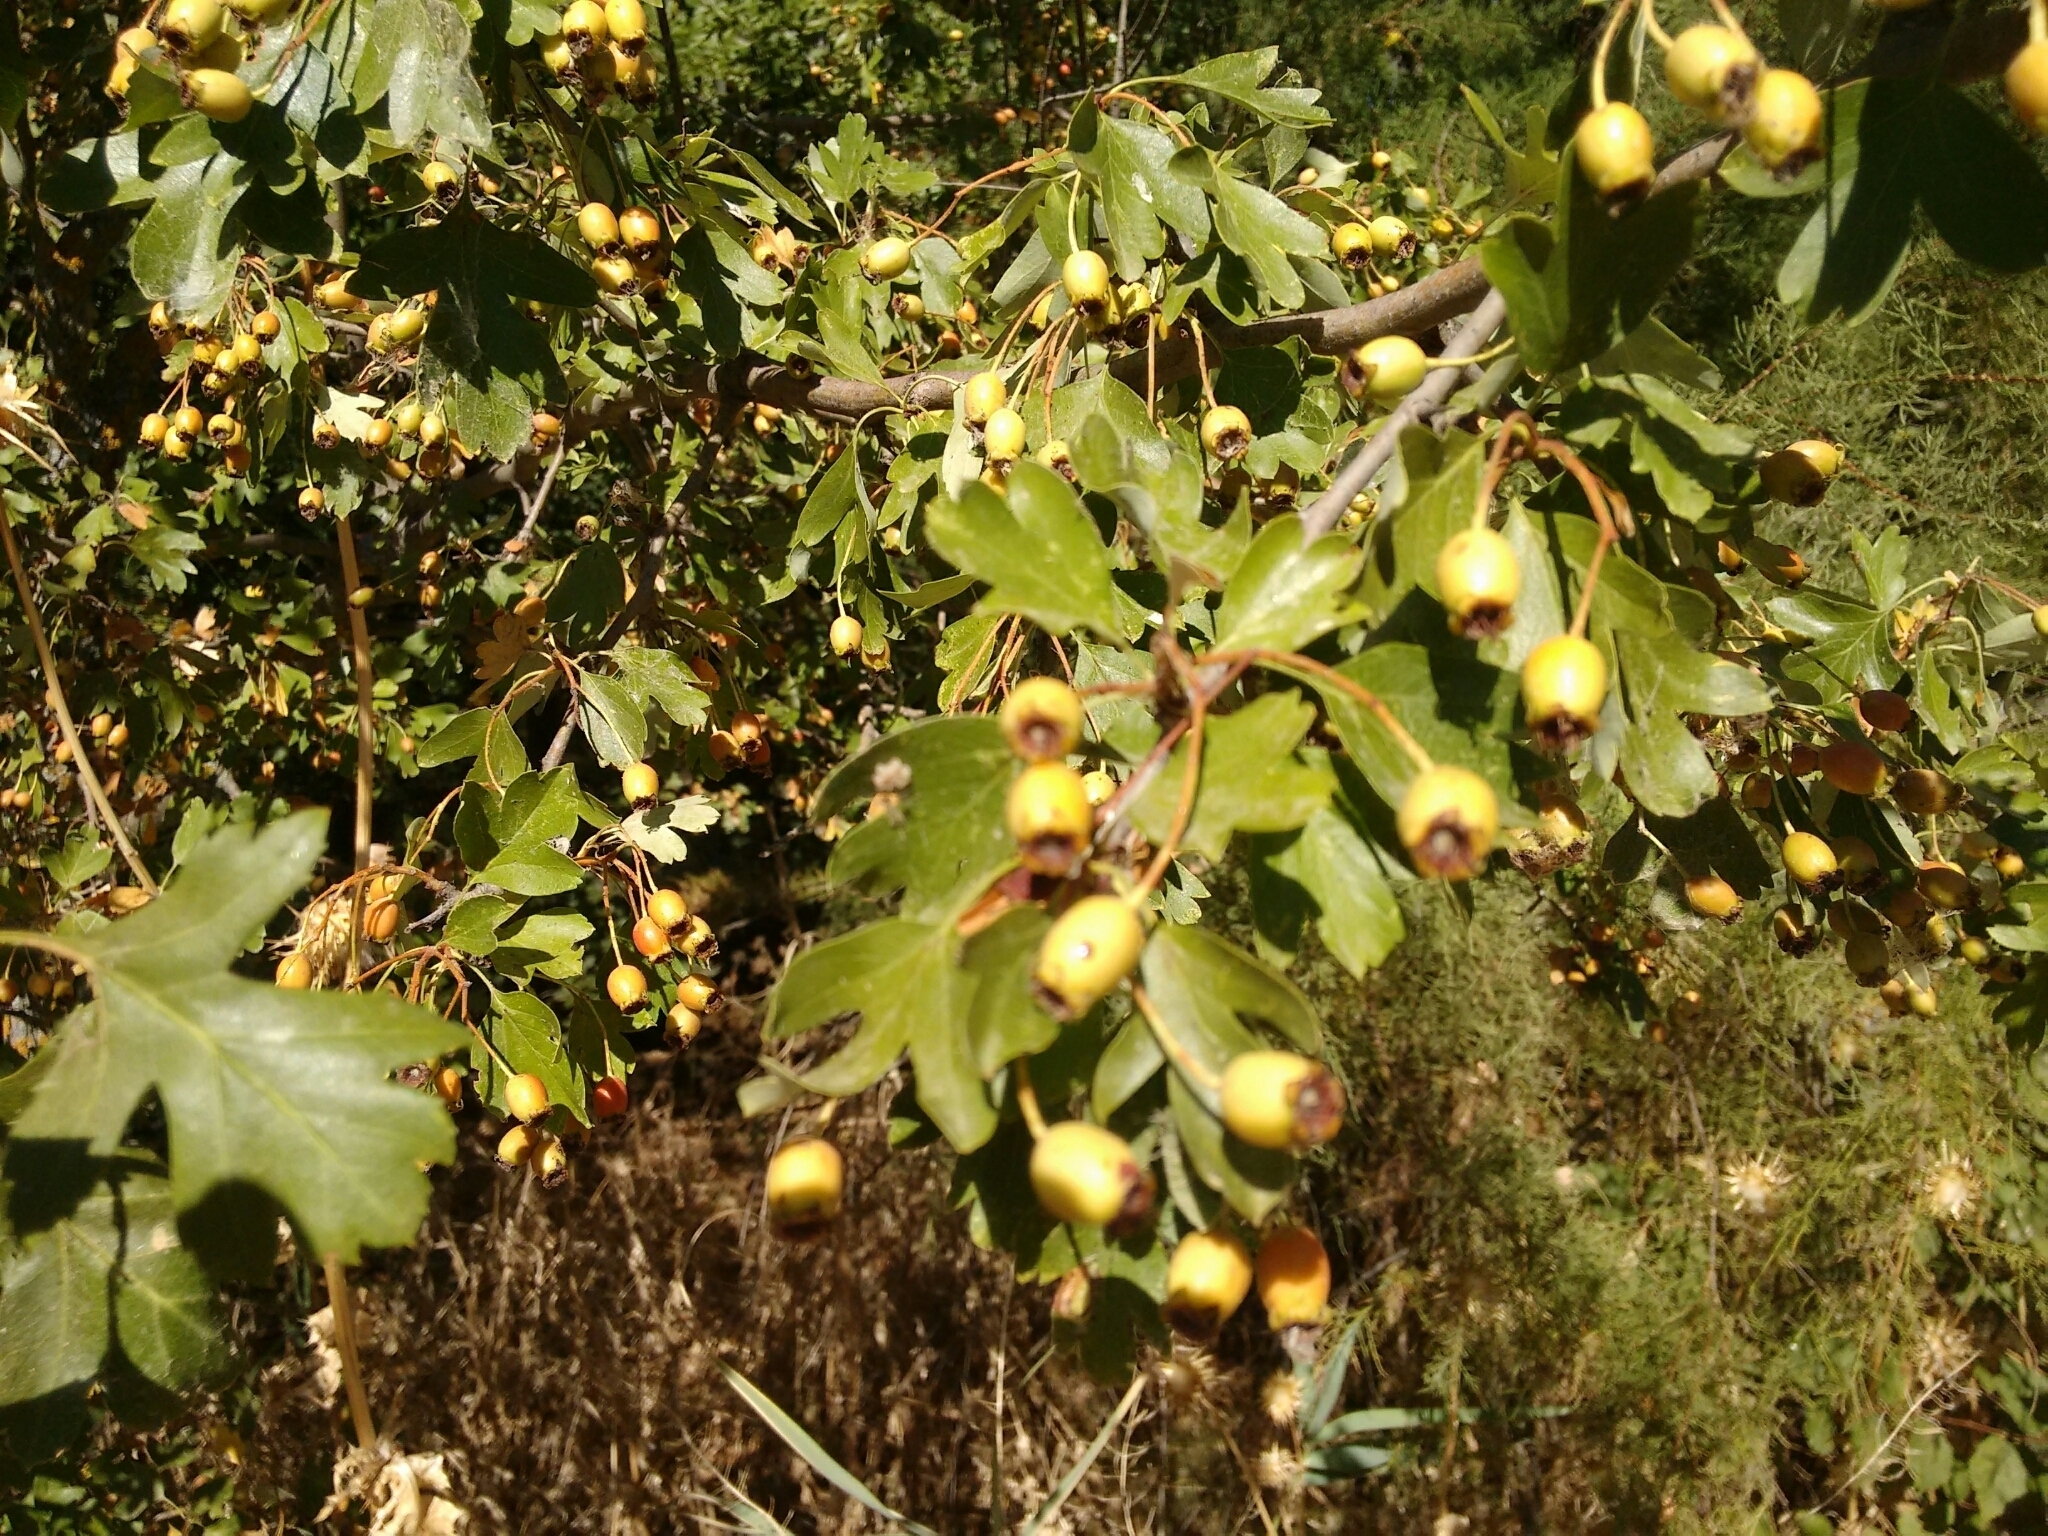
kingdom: Plantae
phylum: Tracheophyta
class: Magnoliopsida
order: Rosales
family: Rosaceae
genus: Crataegus
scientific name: Crataegus monogyna
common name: Hawthorn
